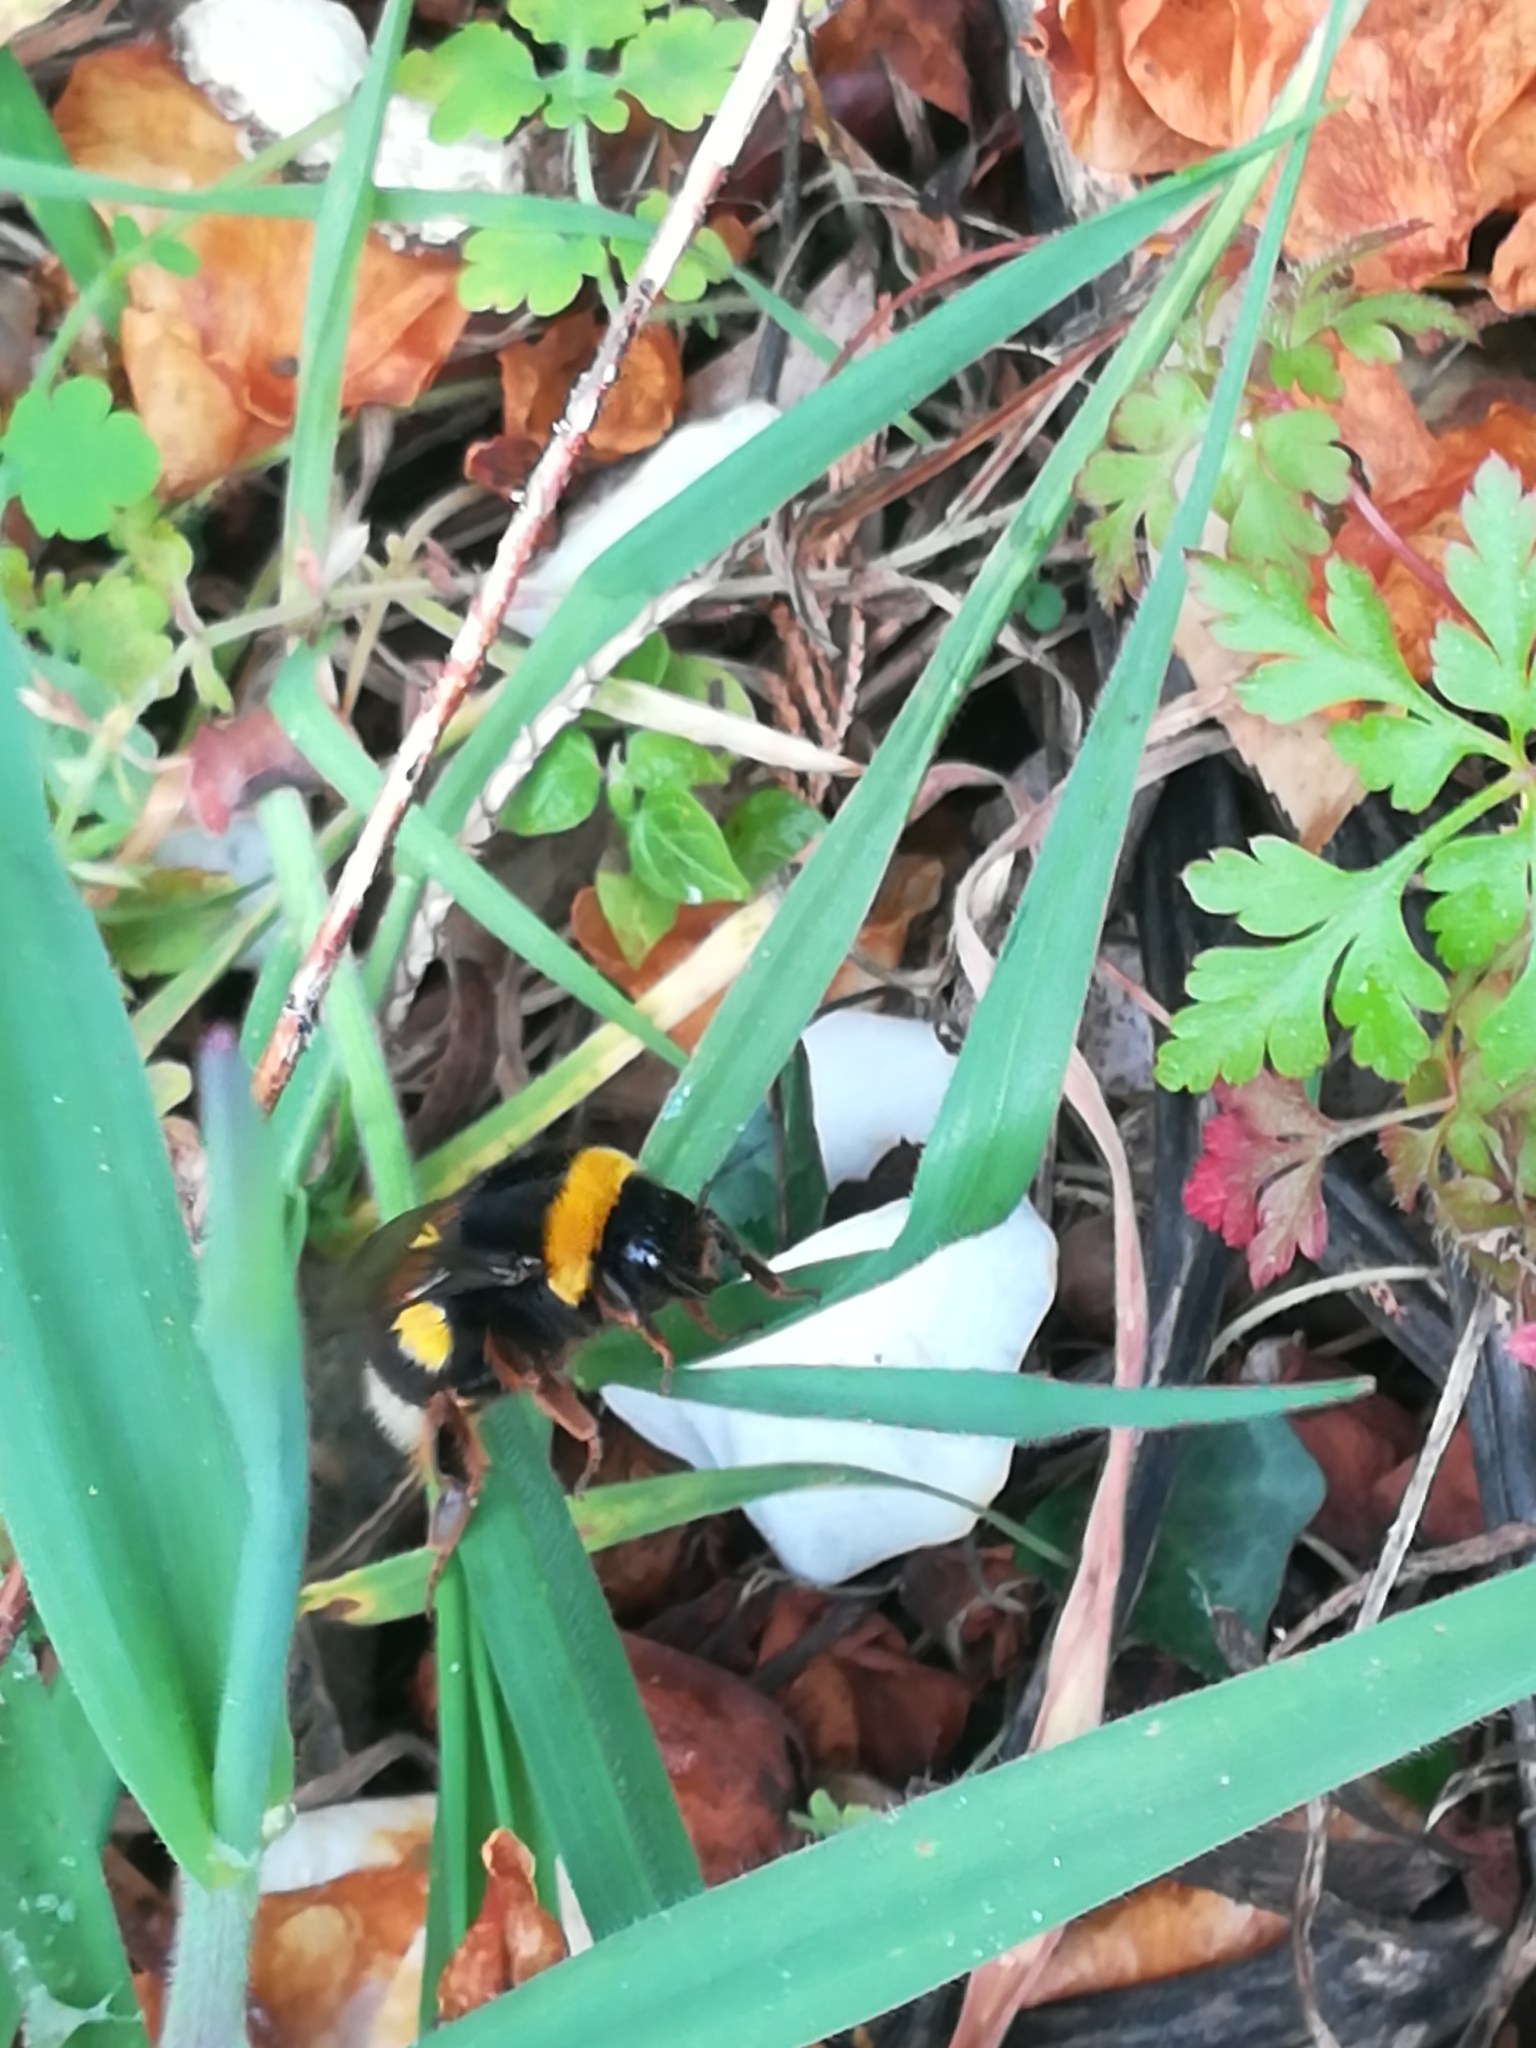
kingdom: Animalia
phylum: Arthropoda
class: Insecta
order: Hymenoptera
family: Apidae
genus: Bombus
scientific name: Bombus terrestris
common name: Buff-tailed bumblebee
